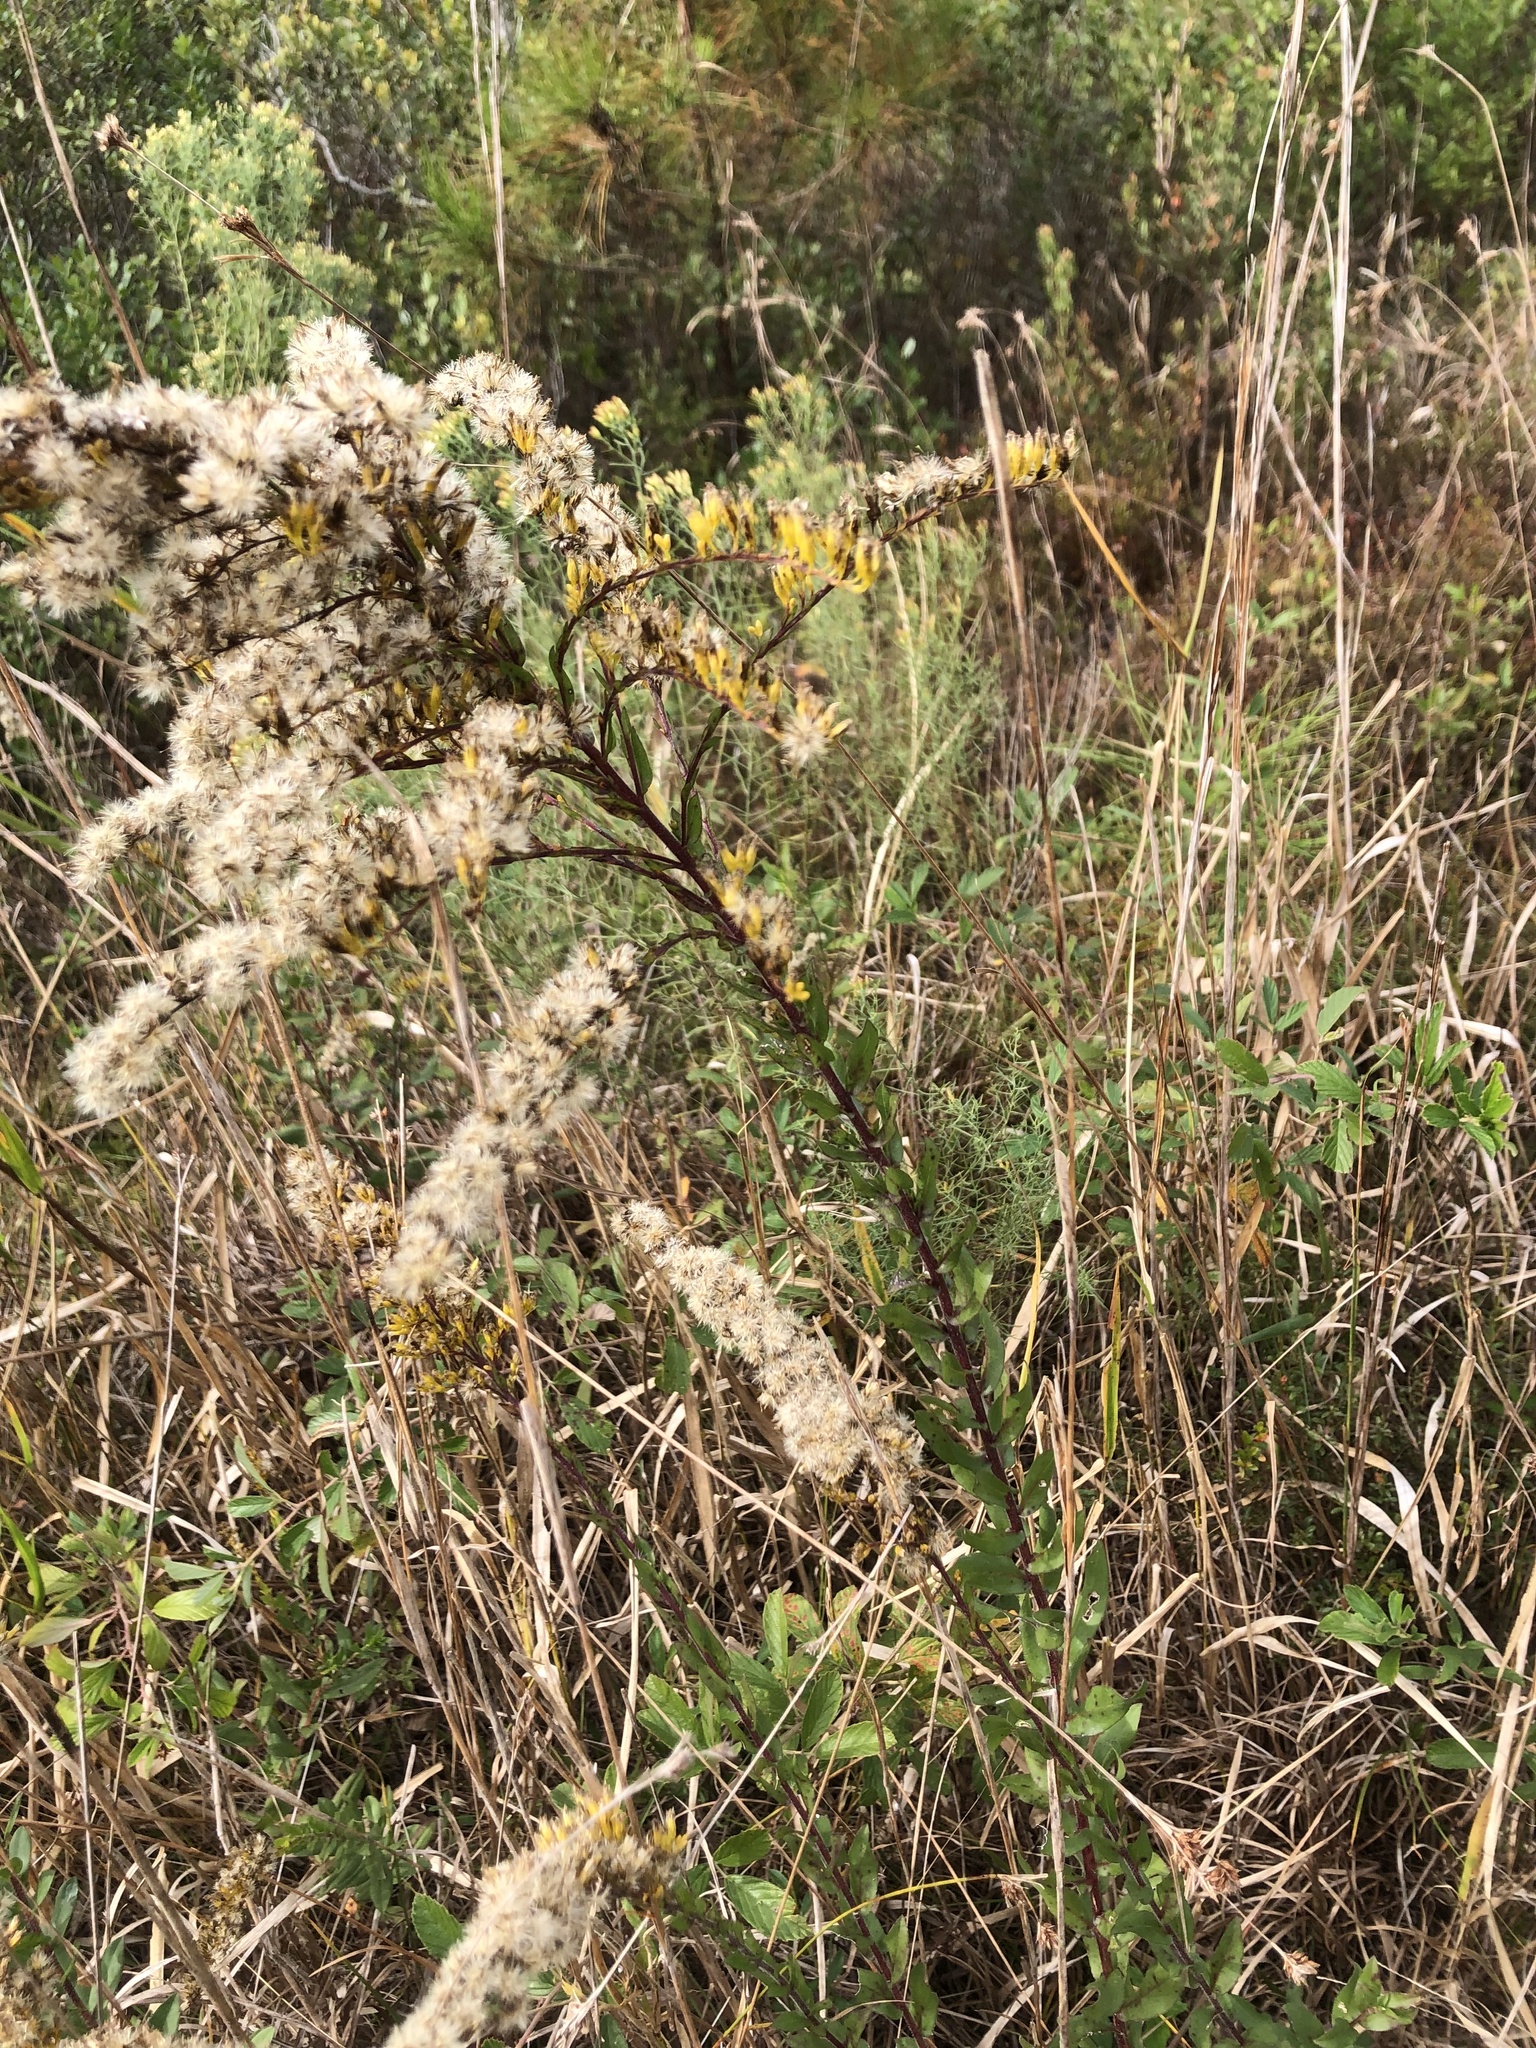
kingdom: Plantae
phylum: Tracheophyta
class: Magnoliopsida
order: Asterales
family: Asteraceae
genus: Solidago
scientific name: Solidago fistulosa
